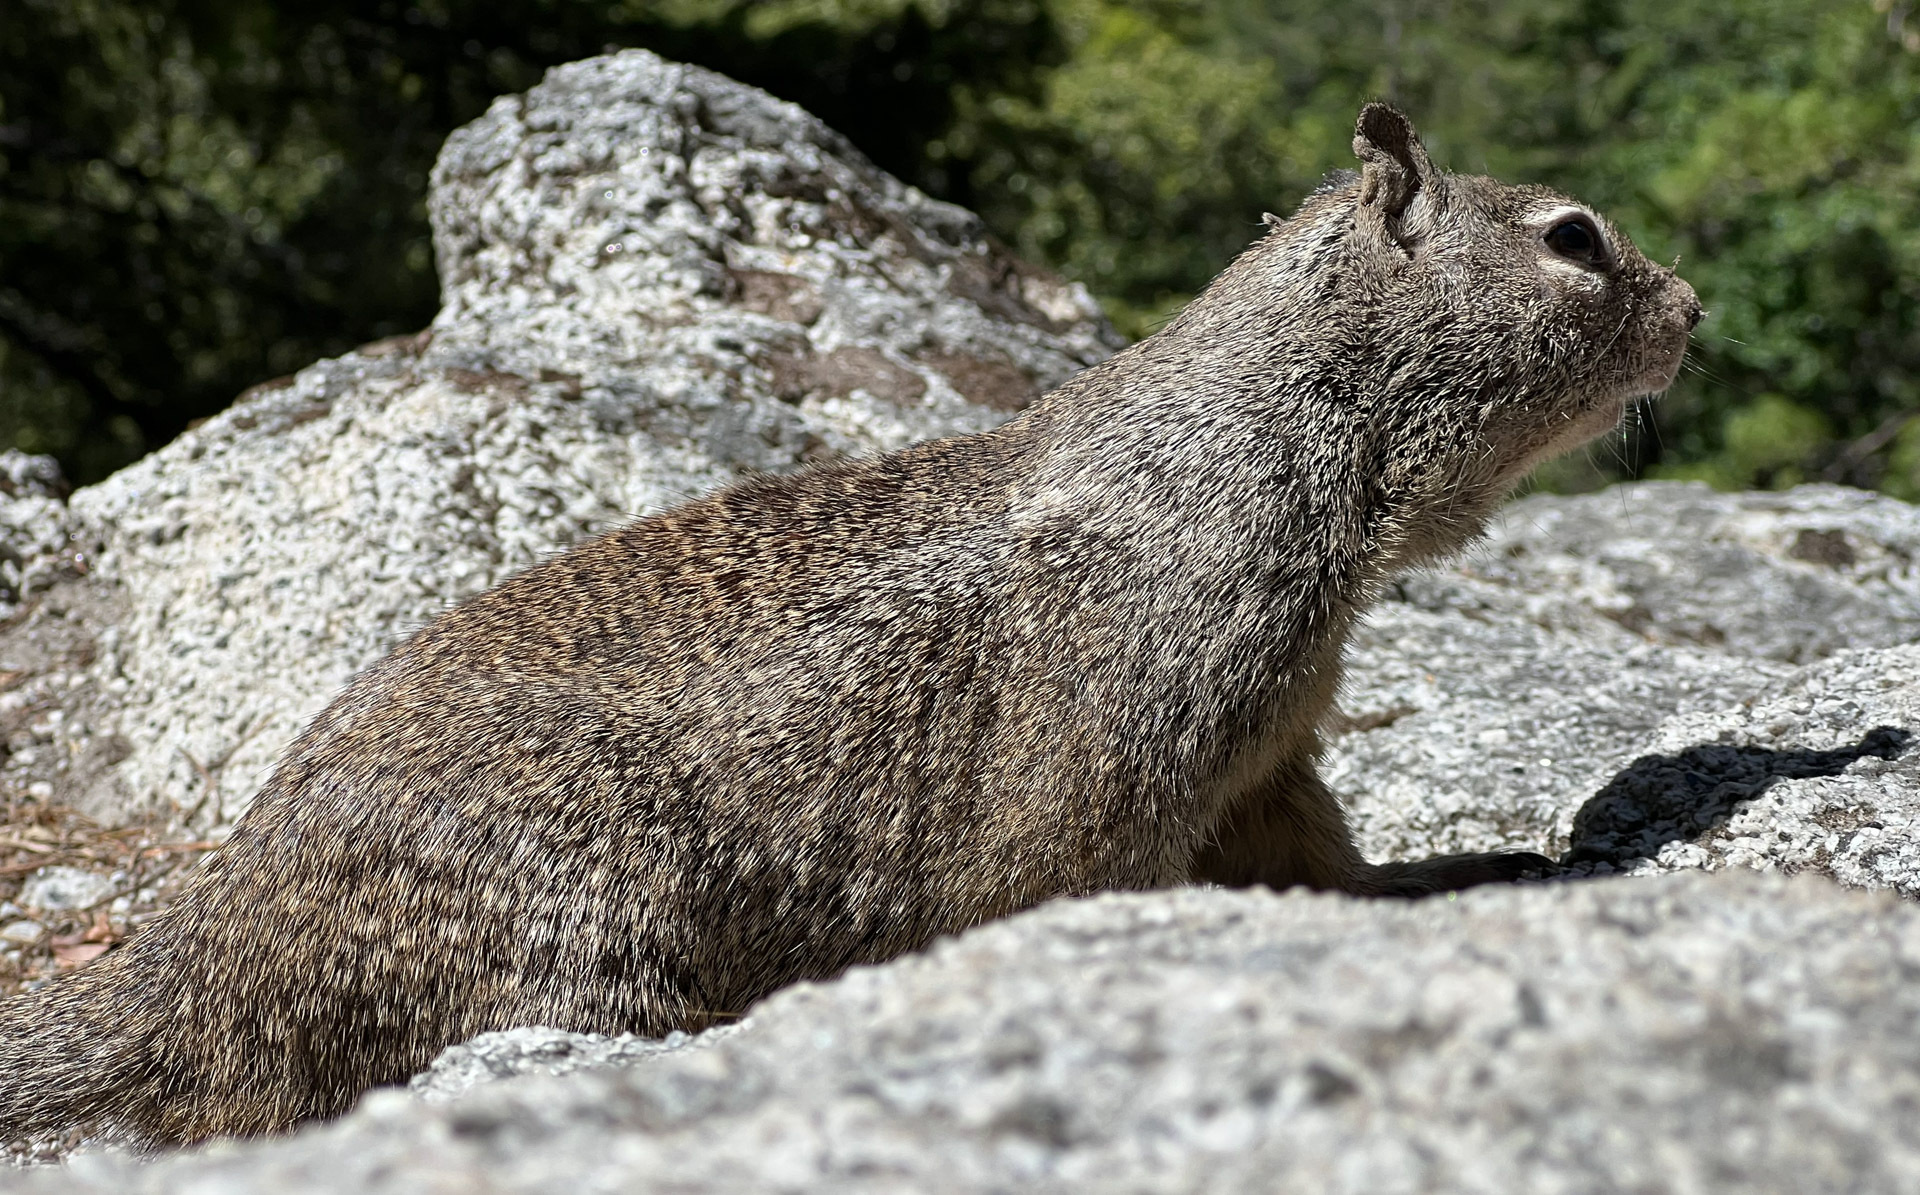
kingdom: Animalia
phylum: Chordata
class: Mammalia
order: Rodentia
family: Sciuridae
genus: Otospermophilus
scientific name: Otospermophilus beecheyi
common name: California ground squirrel
